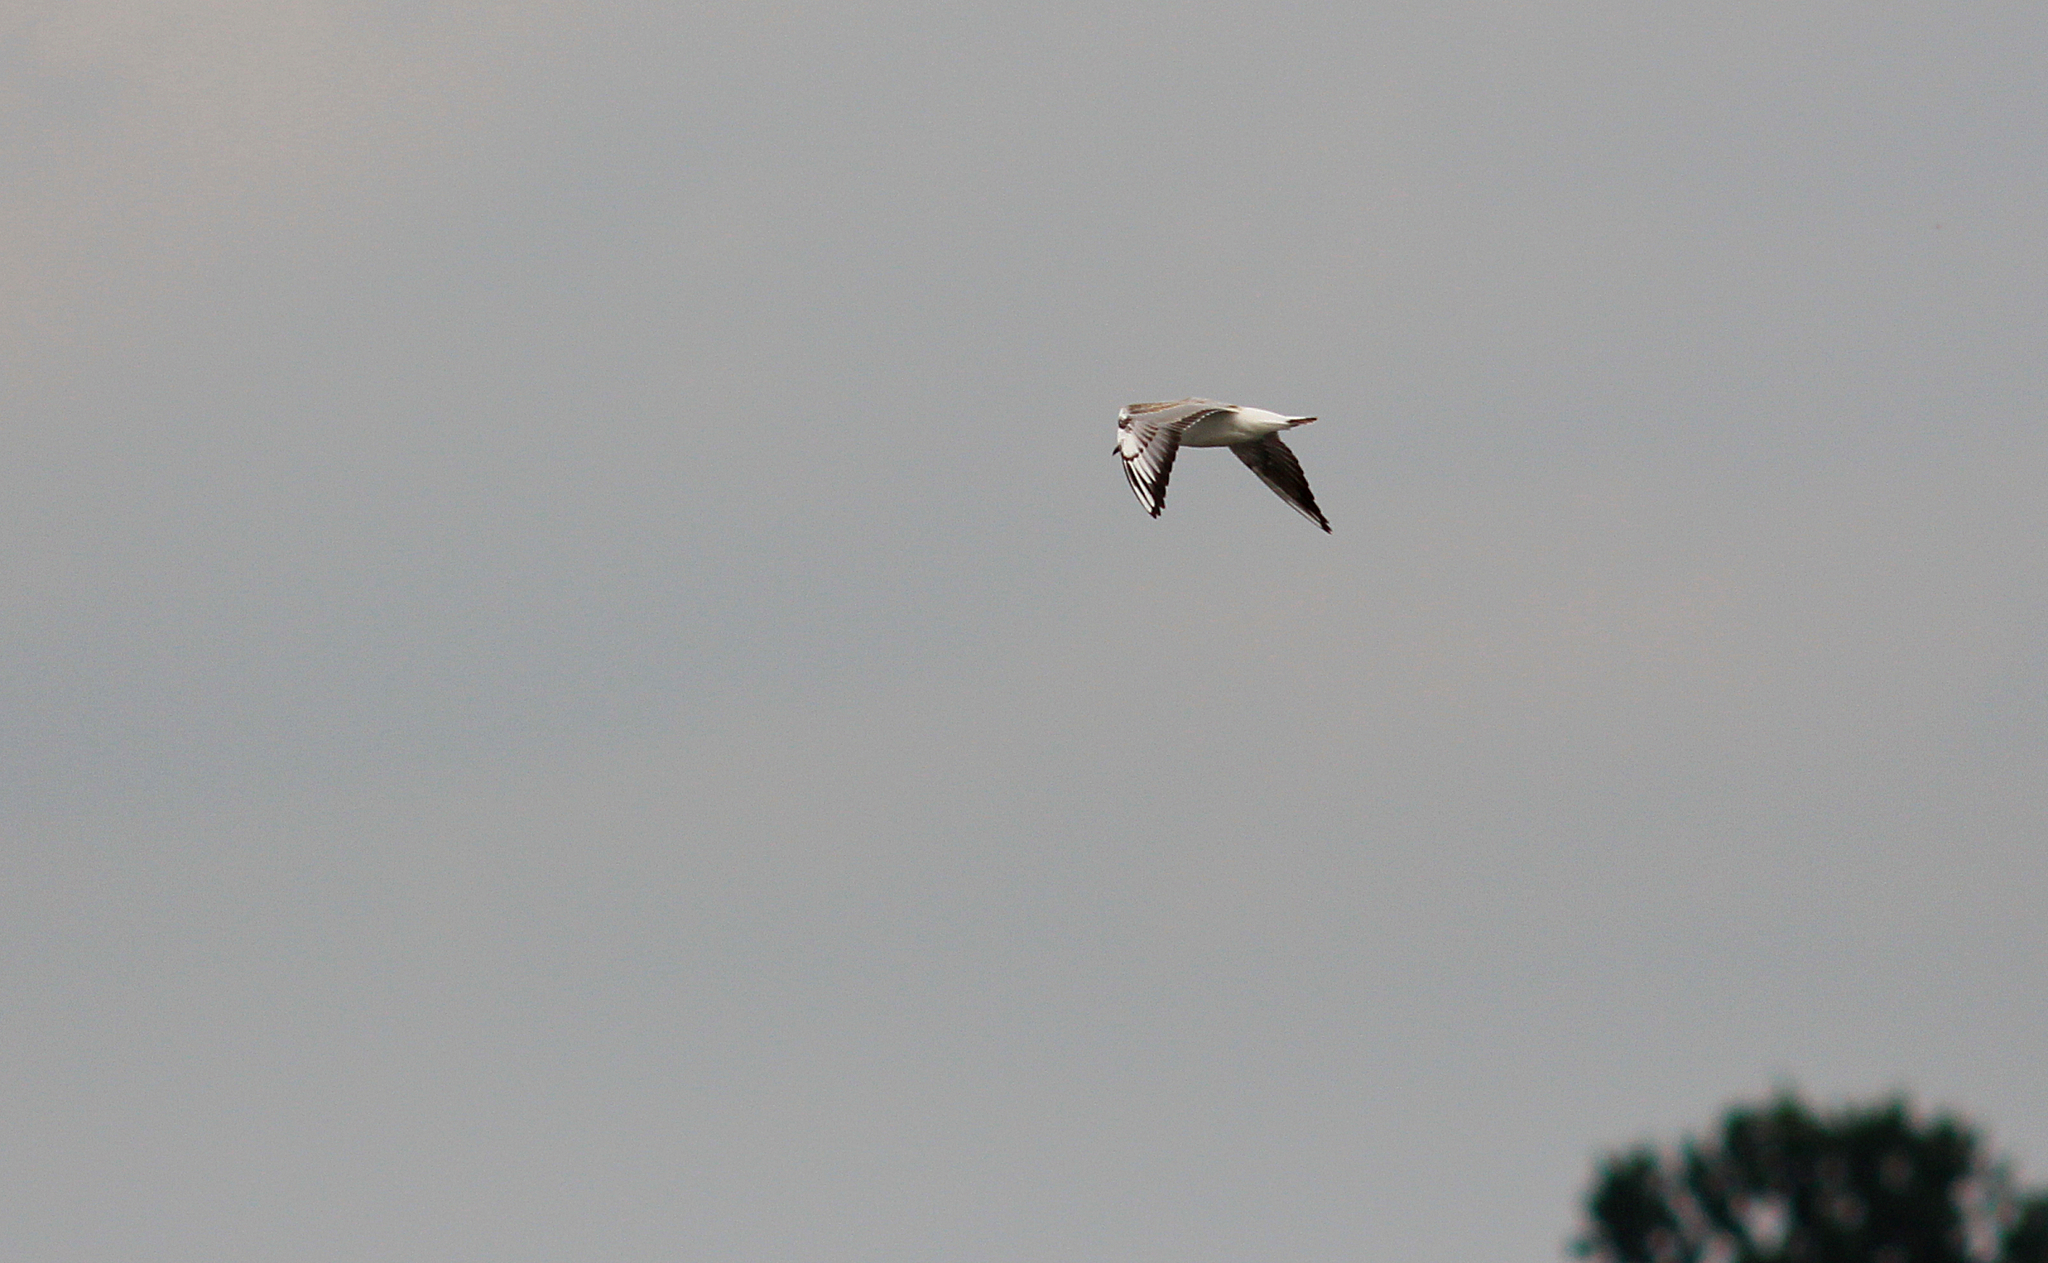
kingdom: Animalia
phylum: Chordata
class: Aves
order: Charadriiformes
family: Laridae
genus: Chroicocephalus
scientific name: Chroicocephalus ridibundus
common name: Black-headed gull
